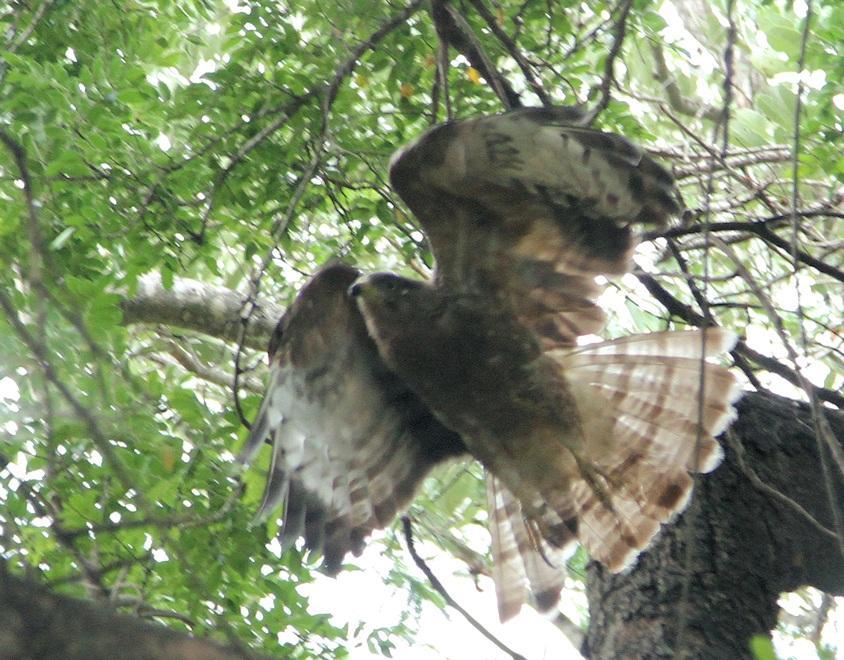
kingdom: Animalia
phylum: Chordata
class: Aves
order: Accipitriformes
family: Accipitridae
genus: Pernis
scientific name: Pernis apivorus
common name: European honey buzzard
